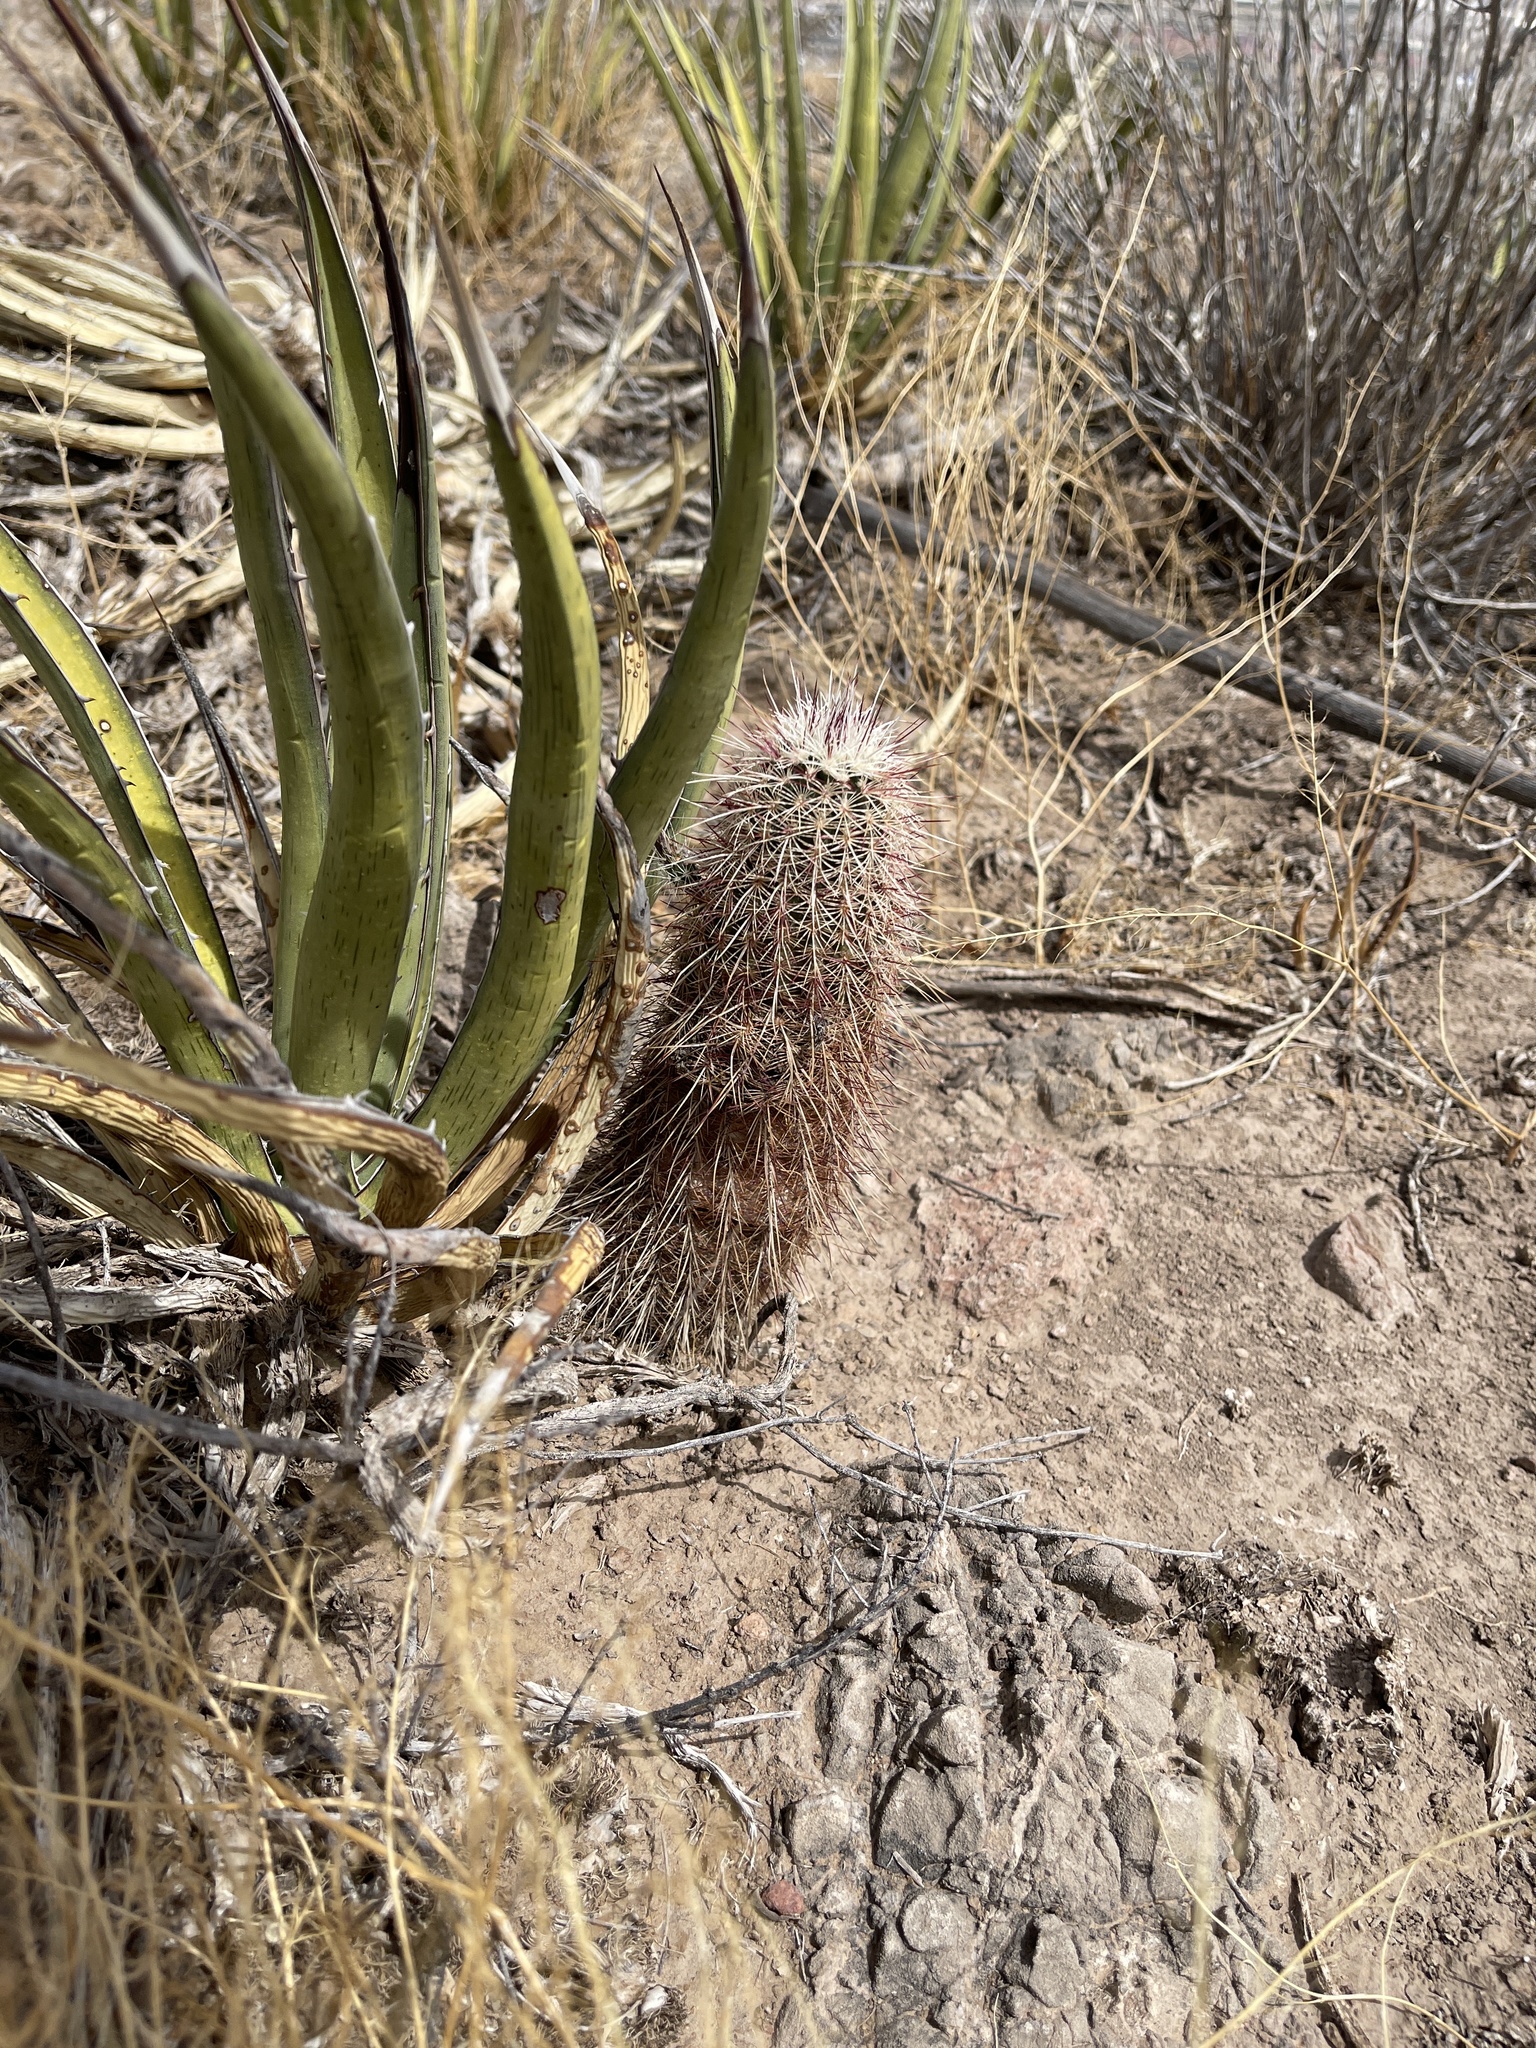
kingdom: Plantae
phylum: Tracheophyta
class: Magnoliopsida
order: Caryophyllales
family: Cactaceae
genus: Echinocereus
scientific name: Echinocereus viridiflorus
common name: Nylon hedgehog cactus
